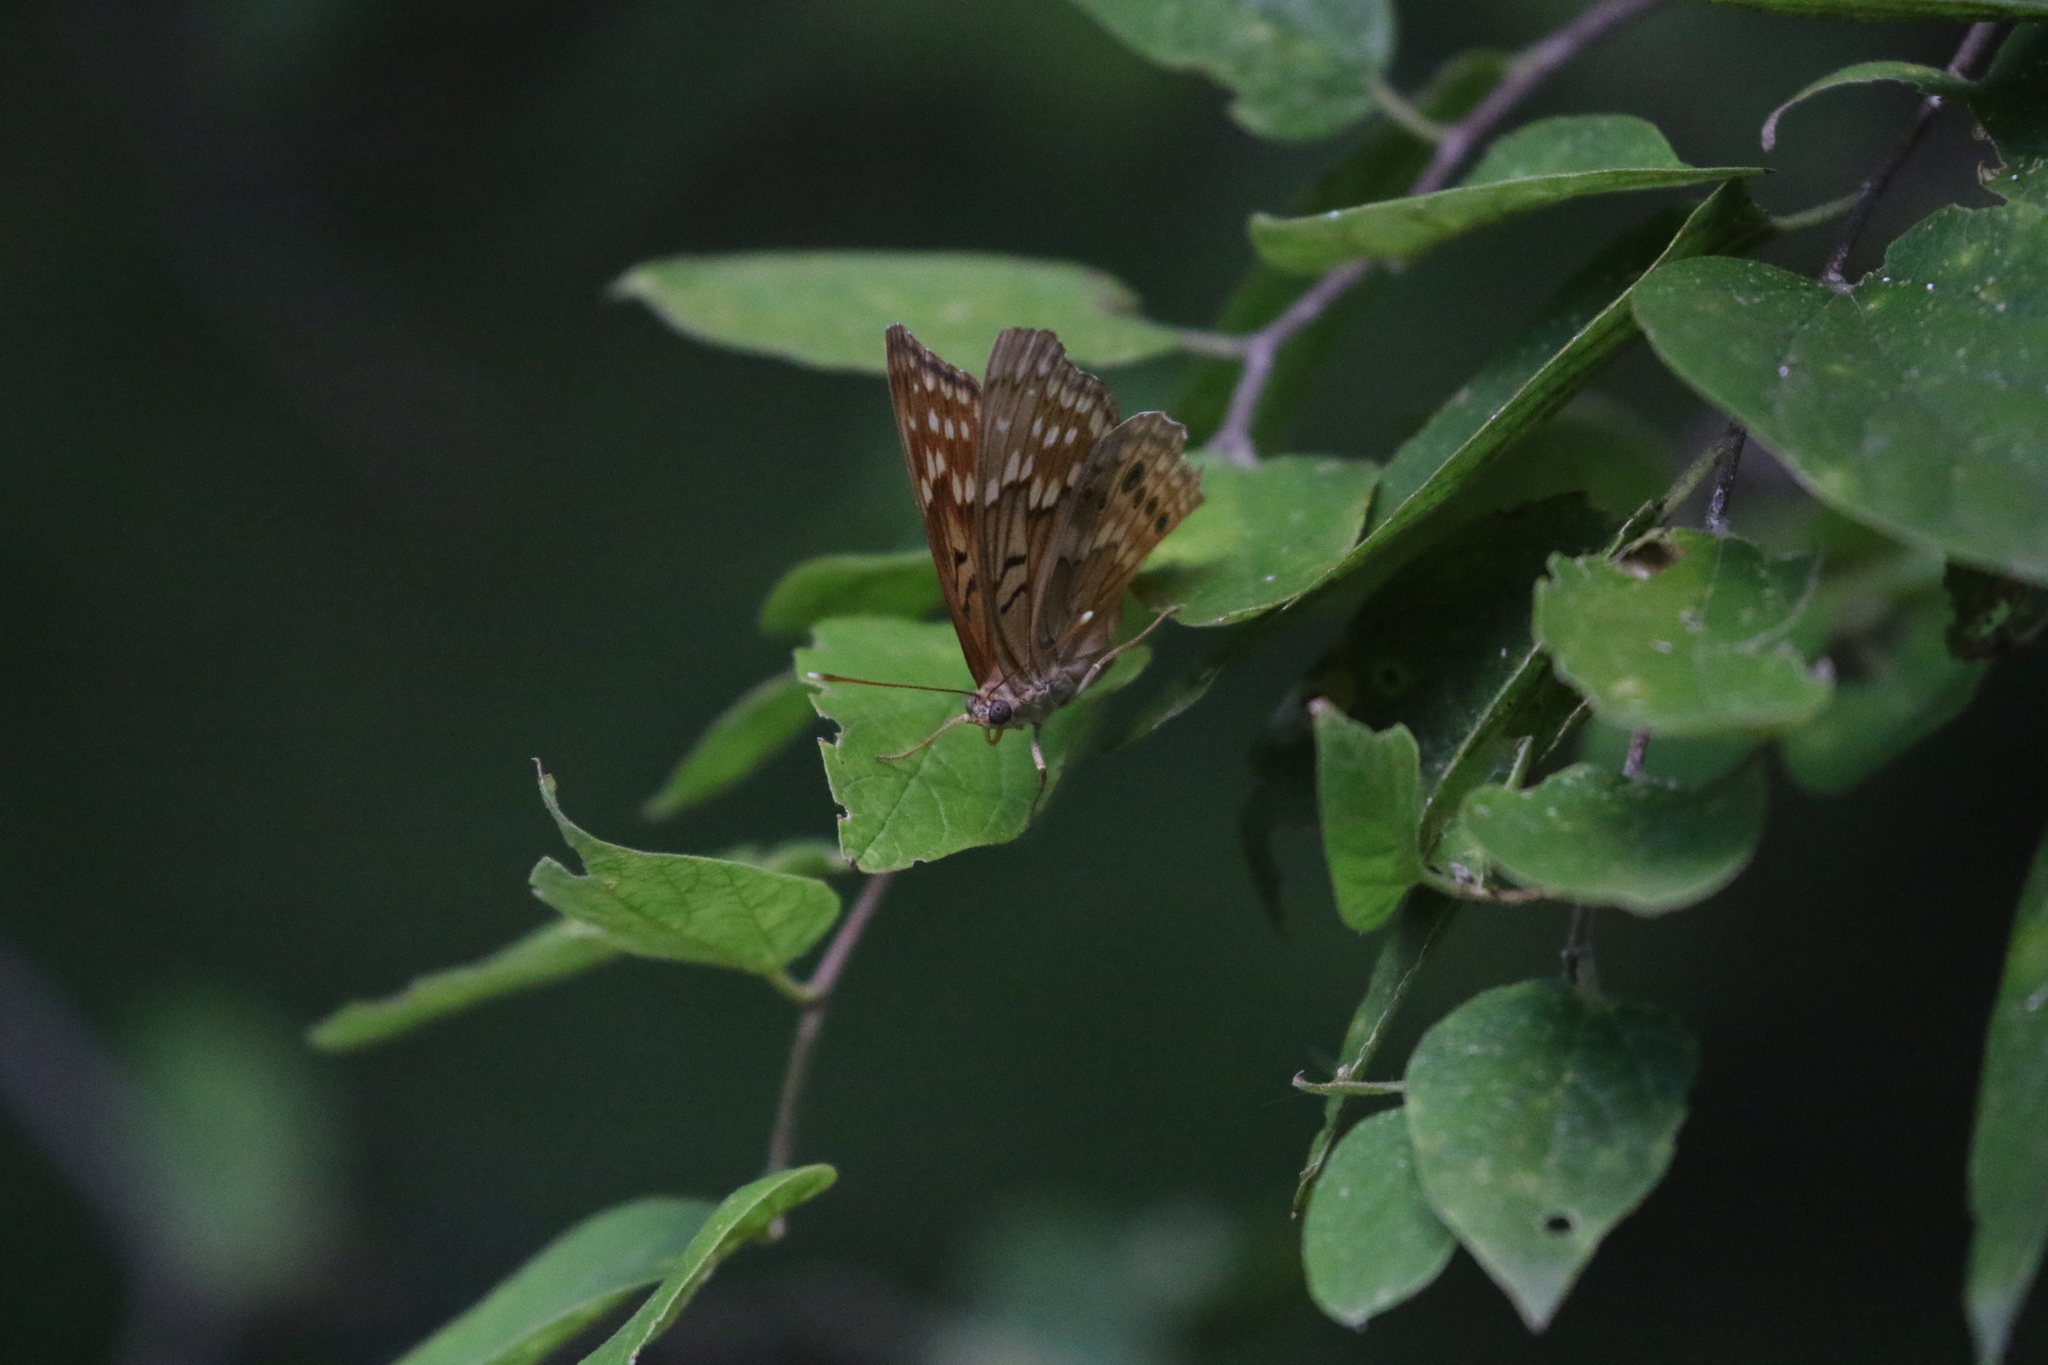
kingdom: Animalia
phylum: Arthropoda
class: Insecta
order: Lepidoptera
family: Nymphalidae
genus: Asterocampa
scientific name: Asterocampa clyton
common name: Tawny emperor
